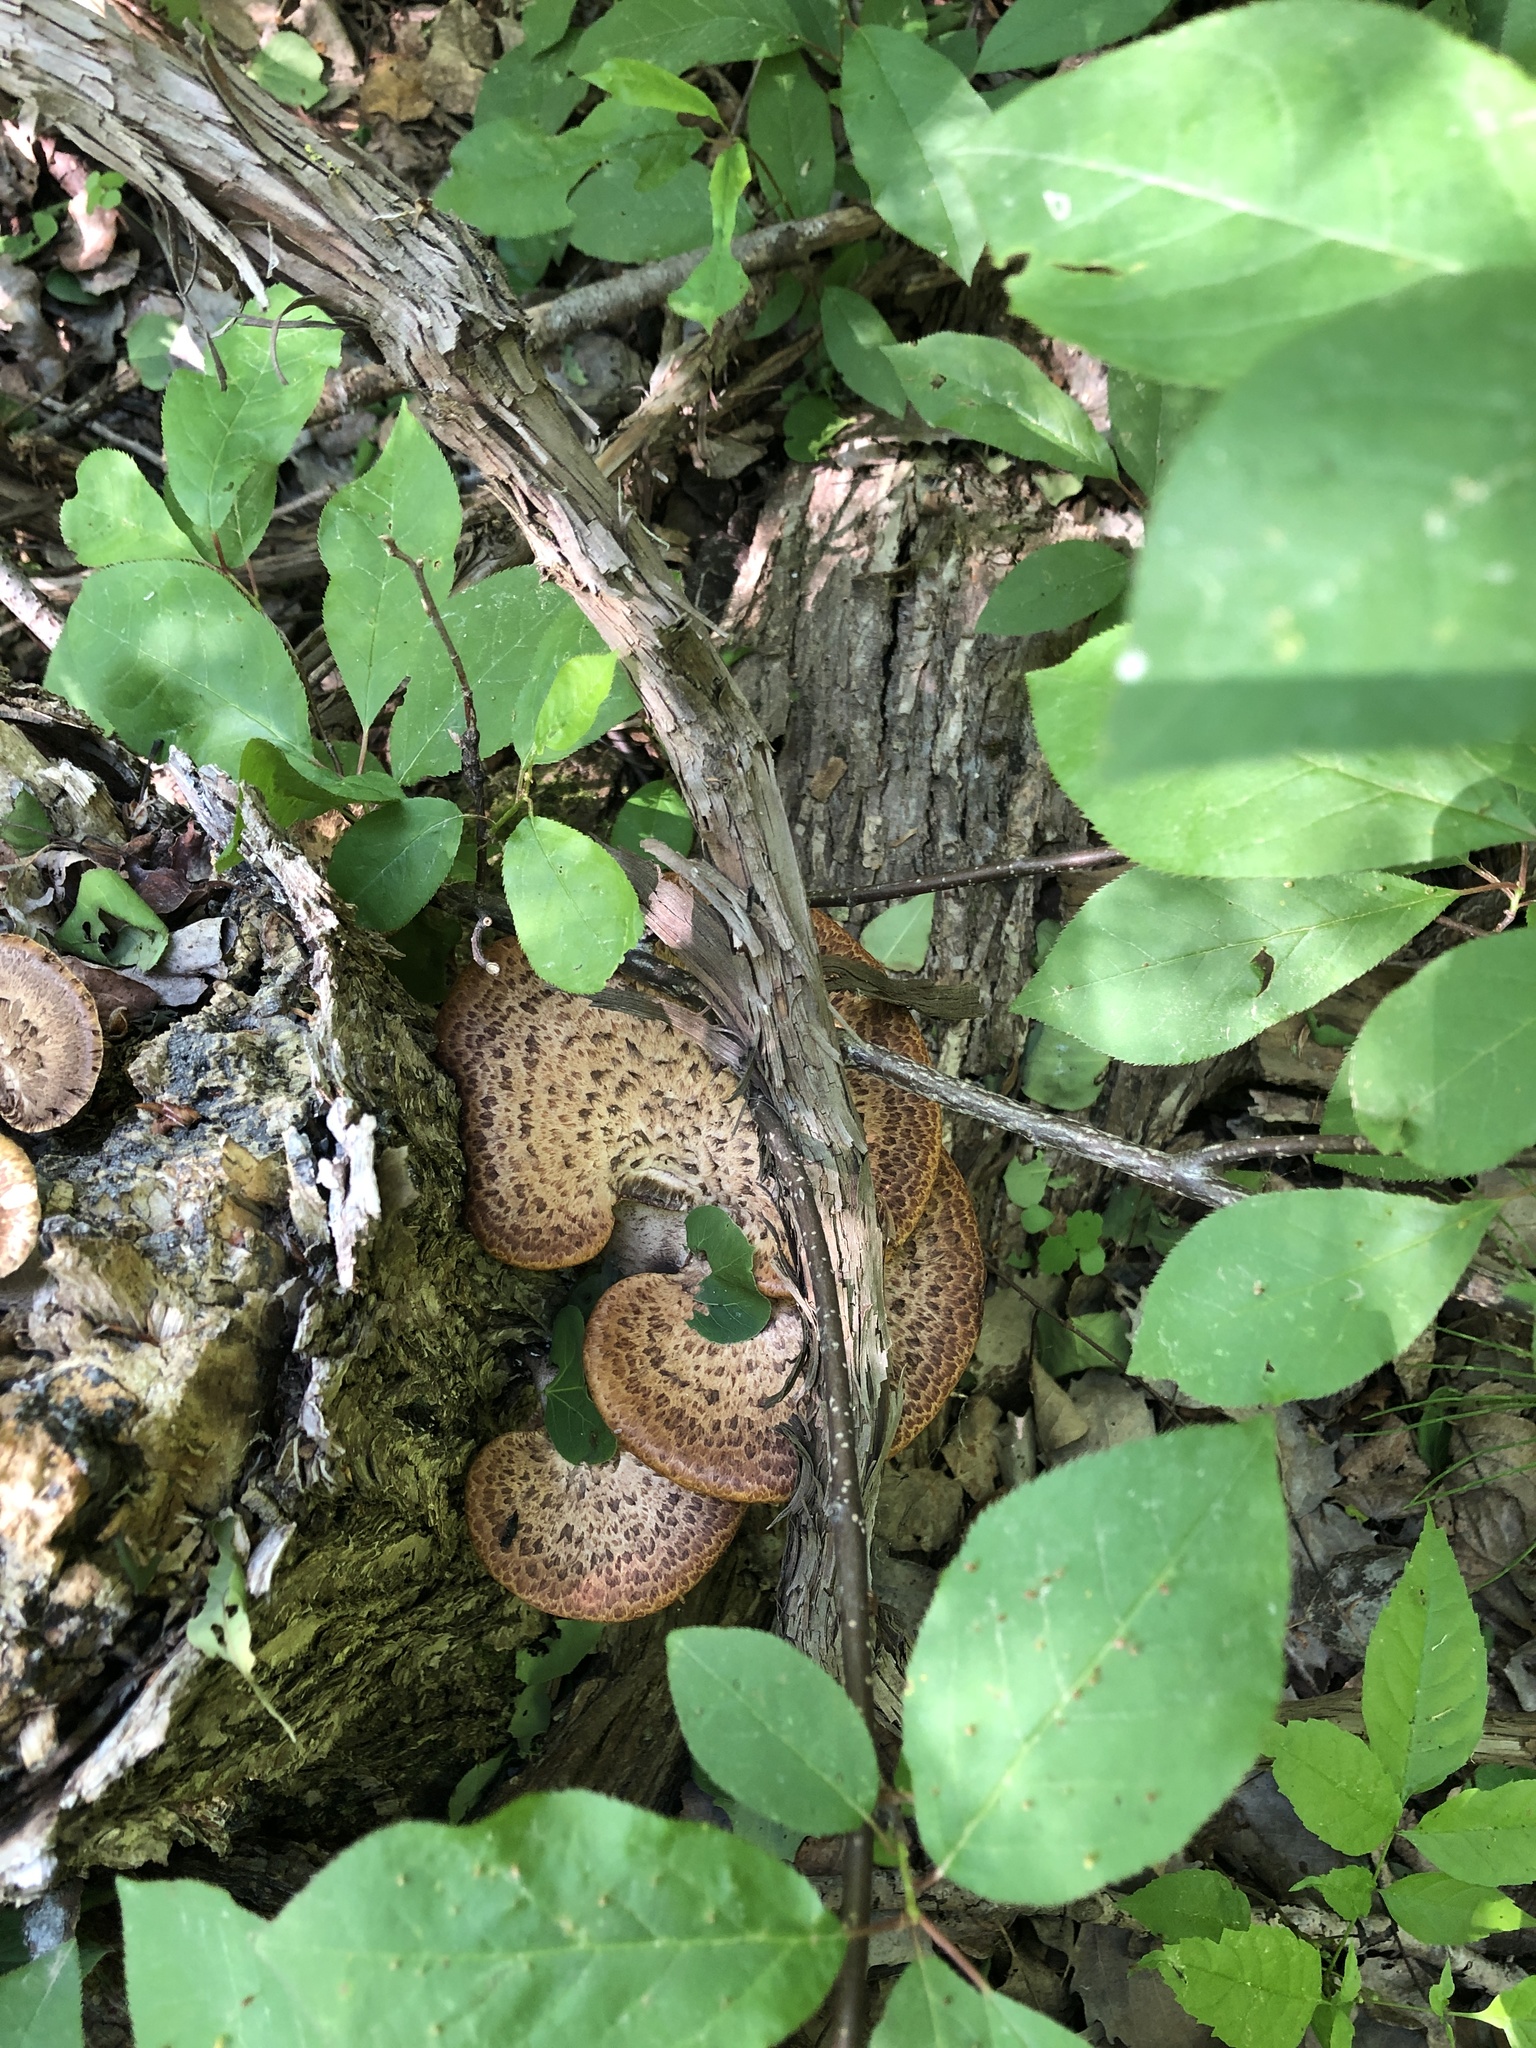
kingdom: Fungi
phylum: Basidiomycota
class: Agaricomycetes
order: Polyporales
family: Polyporaceae
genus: Cerioporus
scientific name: Cerioporus squamosus
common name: Dryad's saddle
